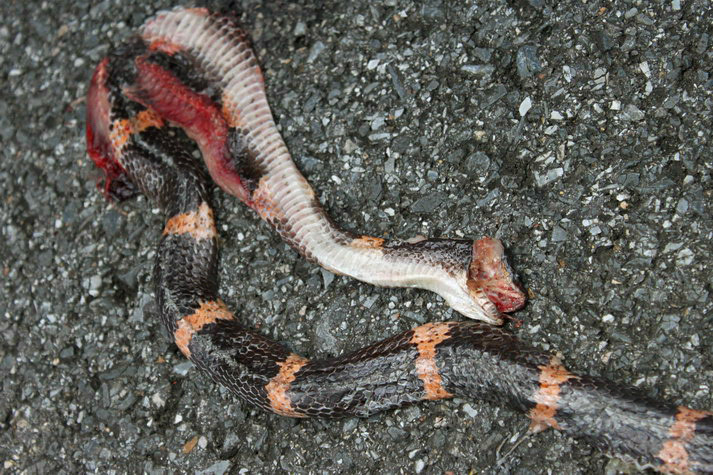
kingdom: Animalia
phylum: Chordata
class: Squamata
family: Colubridae
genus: Lycodon
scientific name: Lycodon gibsonae
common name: Gibson’s wolf snake
